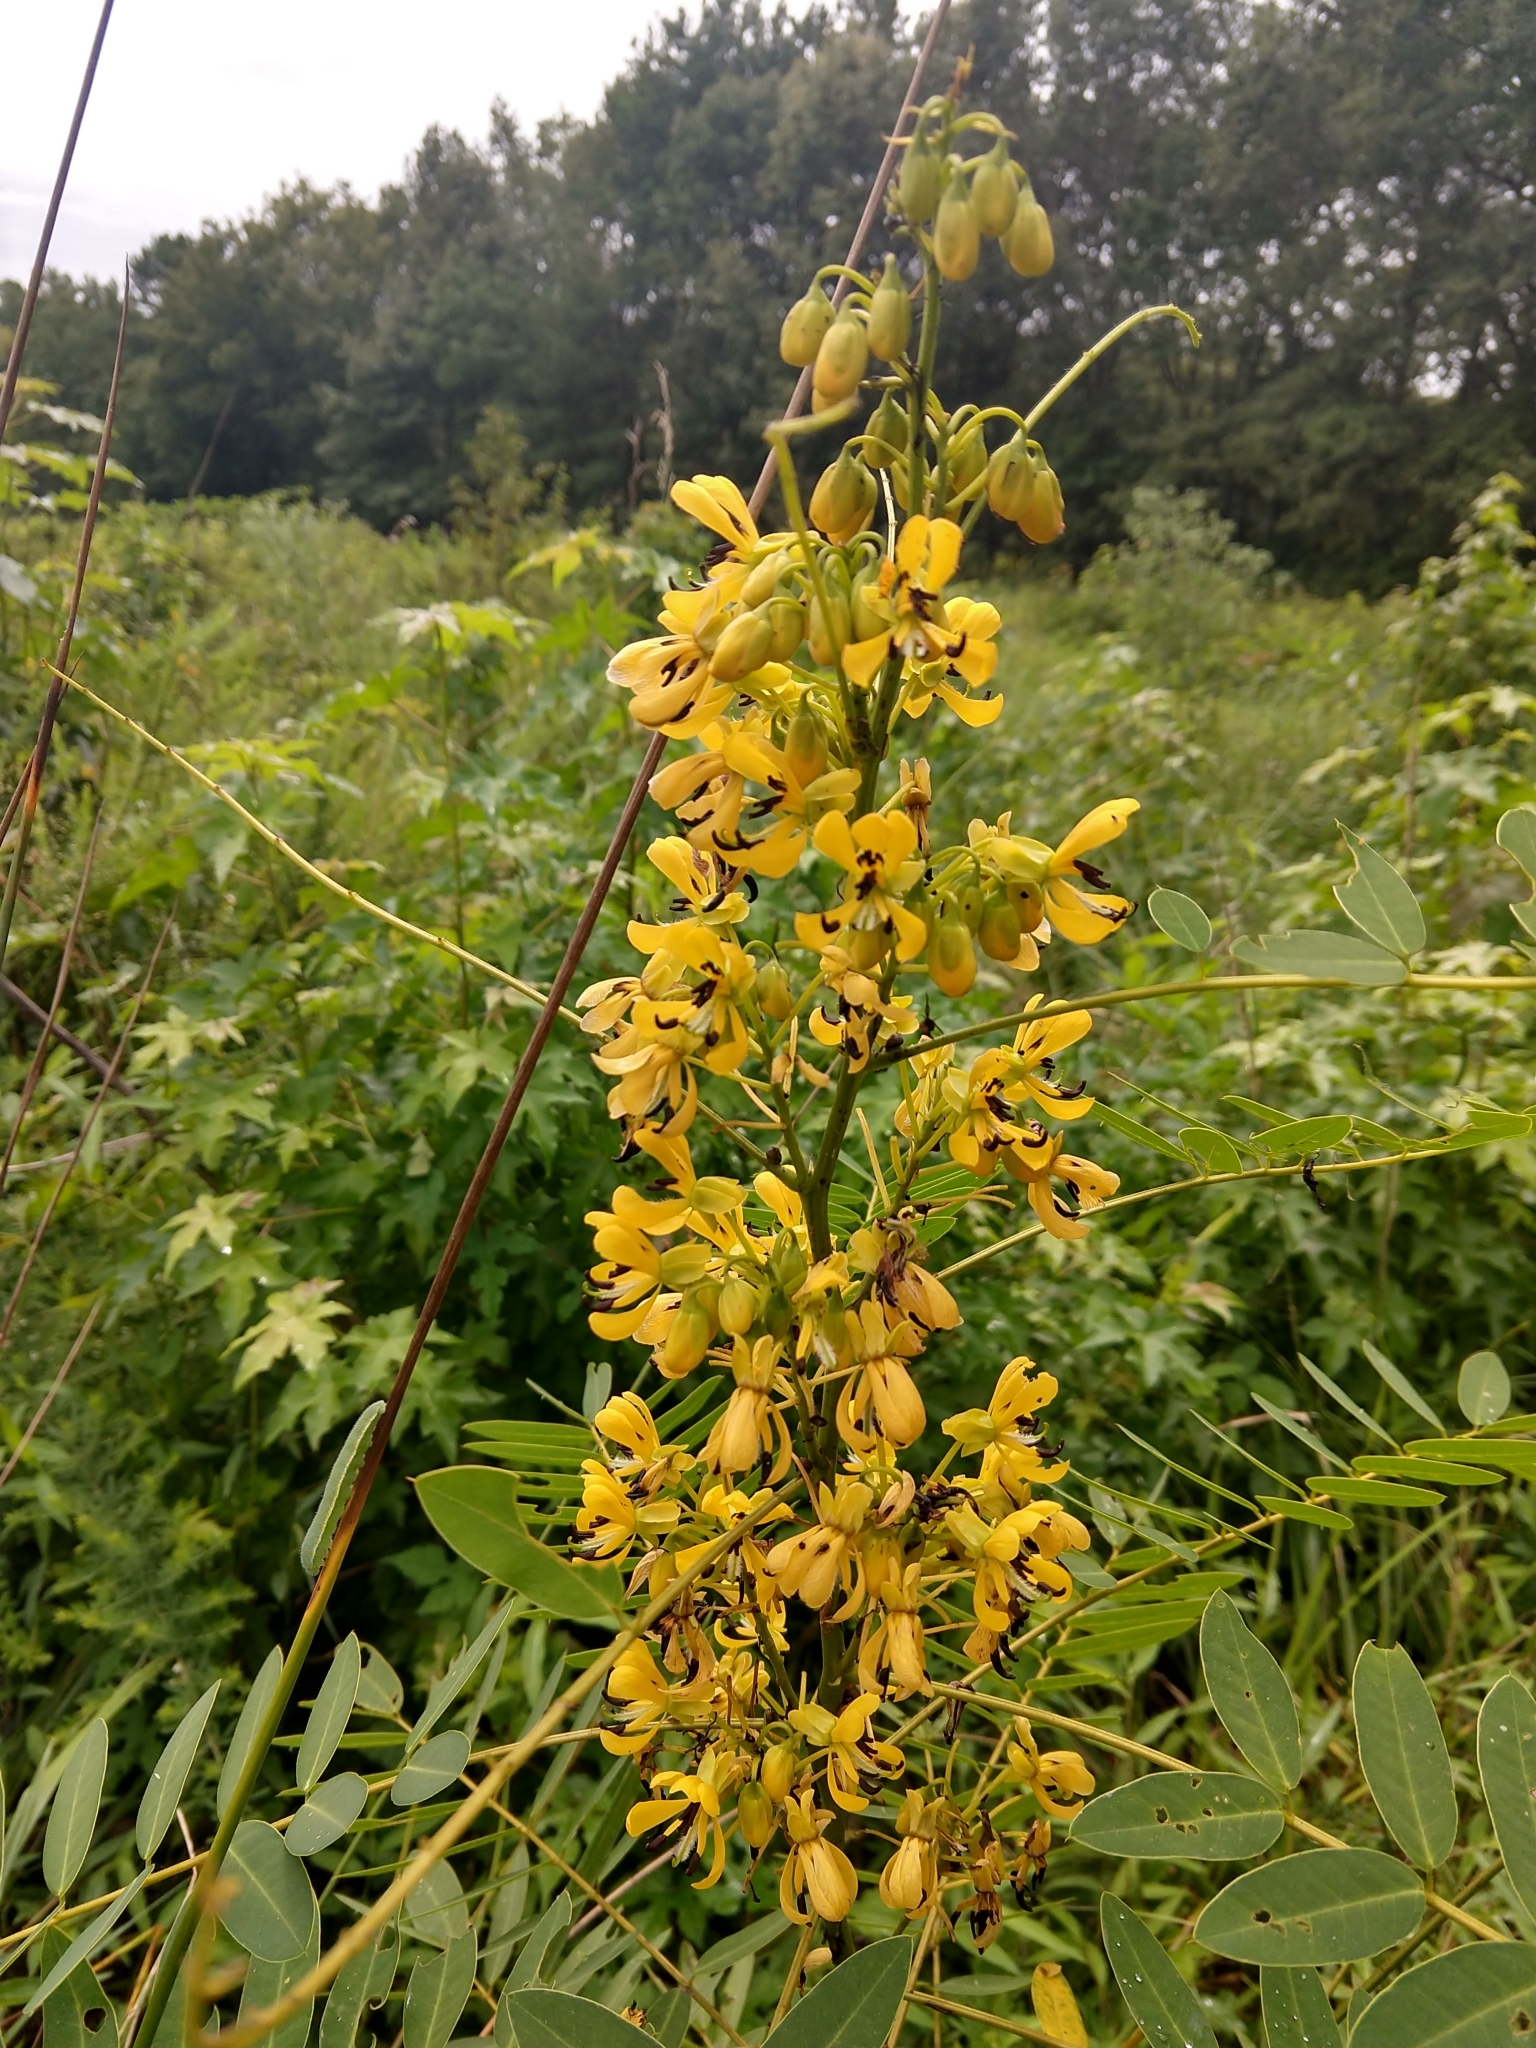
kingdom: Plantae
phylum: Tracheophyta
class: Magnoliopsida
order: Fabales
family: Fabaceae
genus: Senna
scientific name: Senna hebecarpa
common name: Wild senna
